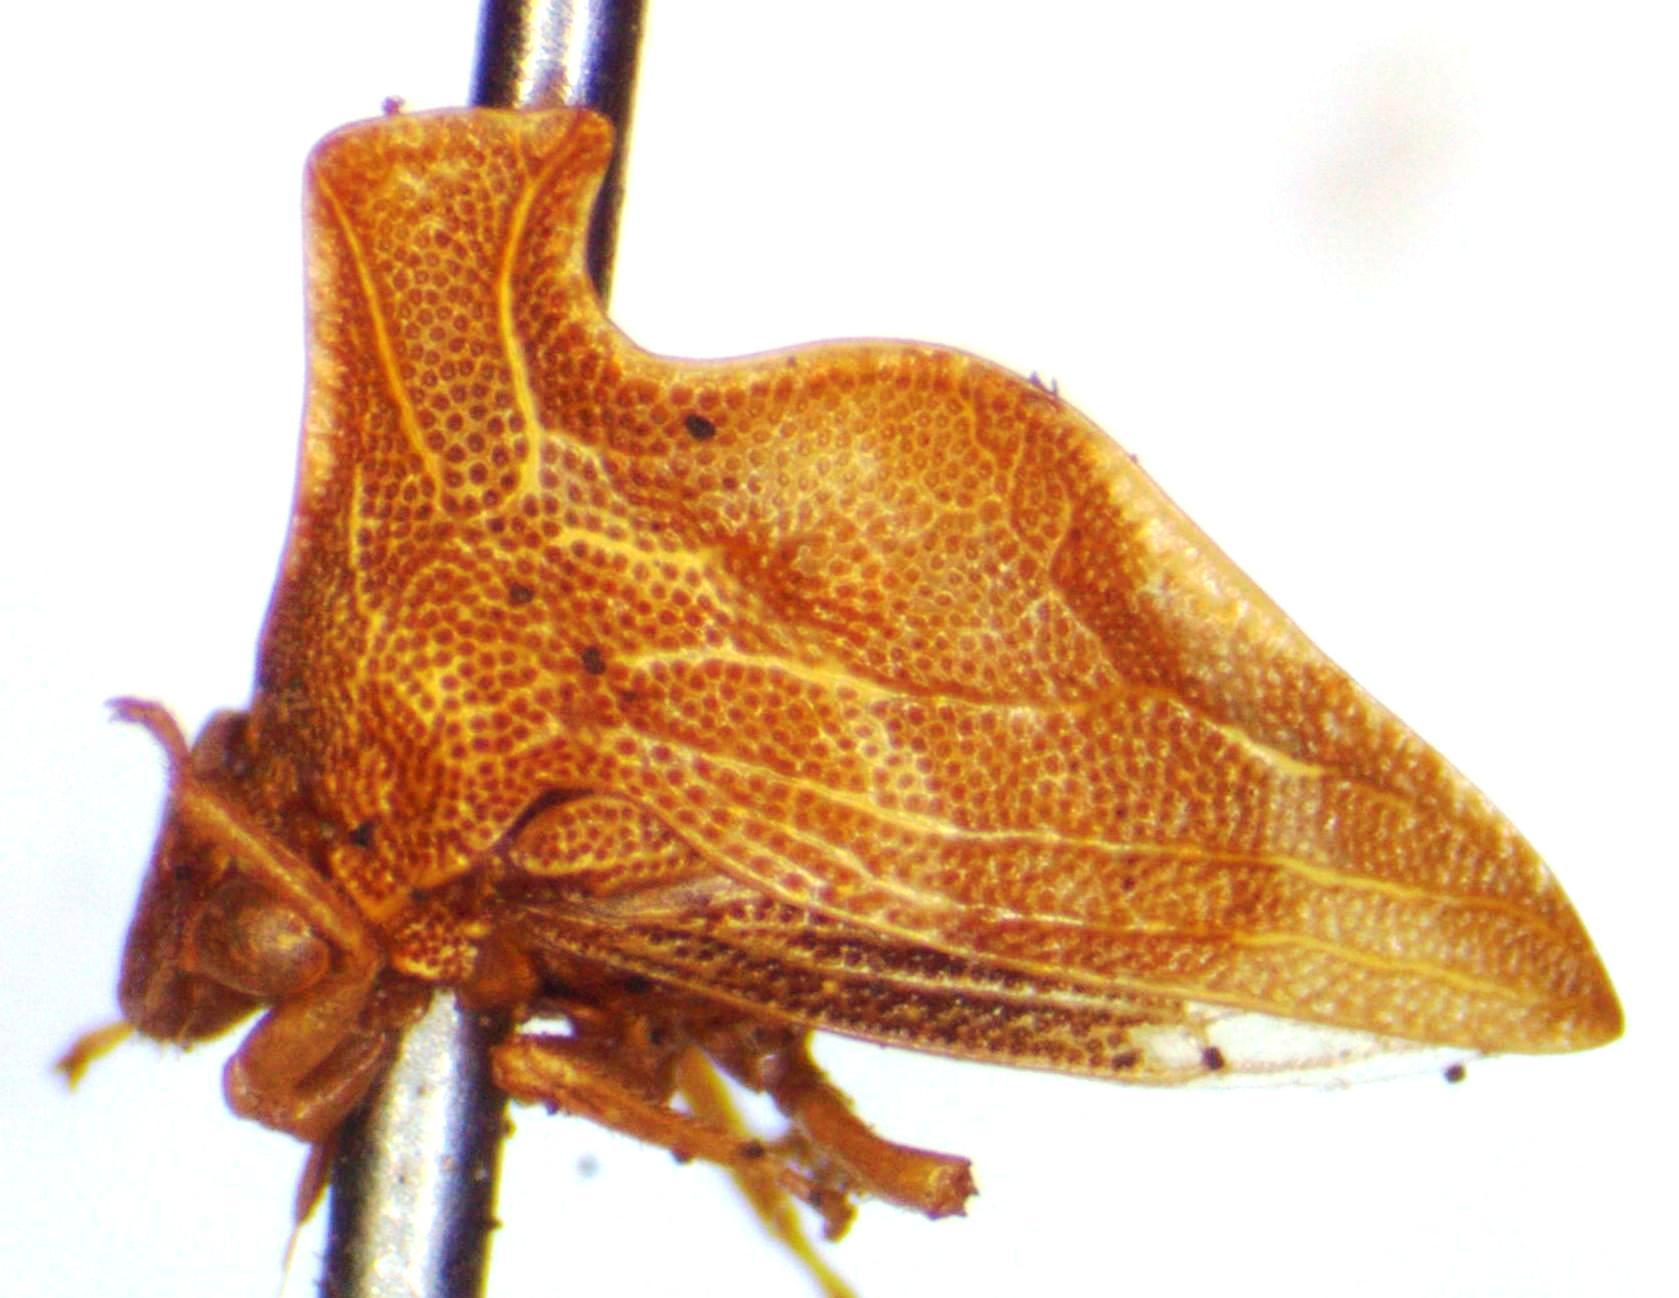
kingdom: Animalia
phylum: Arthropoda
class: Insecta
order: Hemiptera
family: Membracidae
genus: Entylia
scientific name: Entylia carinata
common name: Keeled treehopper
